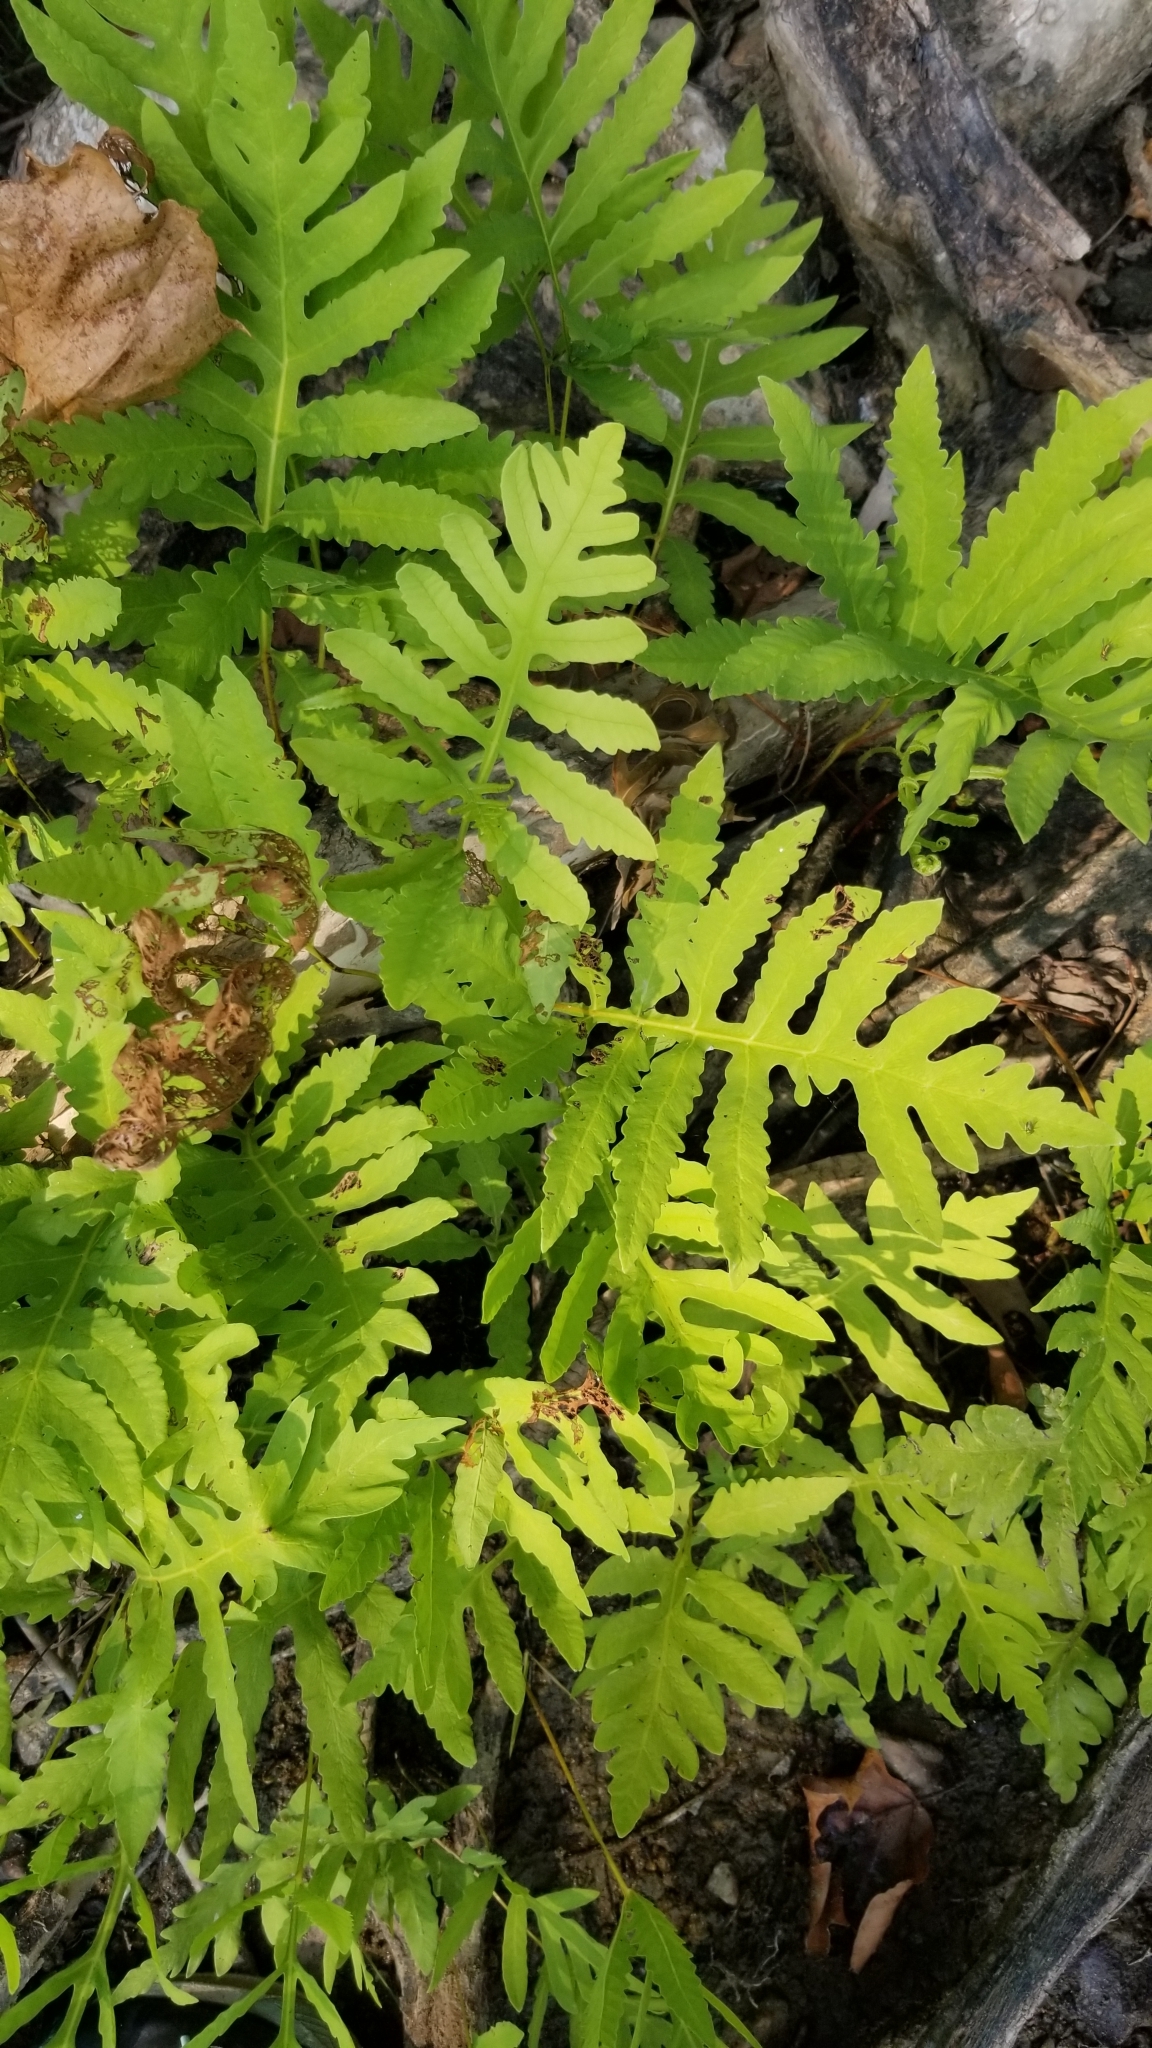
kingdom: Plantae
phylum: Tracheophyta
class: Polypodiopsida
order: Polypodiales
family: Onocleaceae
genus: Onoclea
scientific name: Onoclea sensibilis
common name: Sensitive fern
